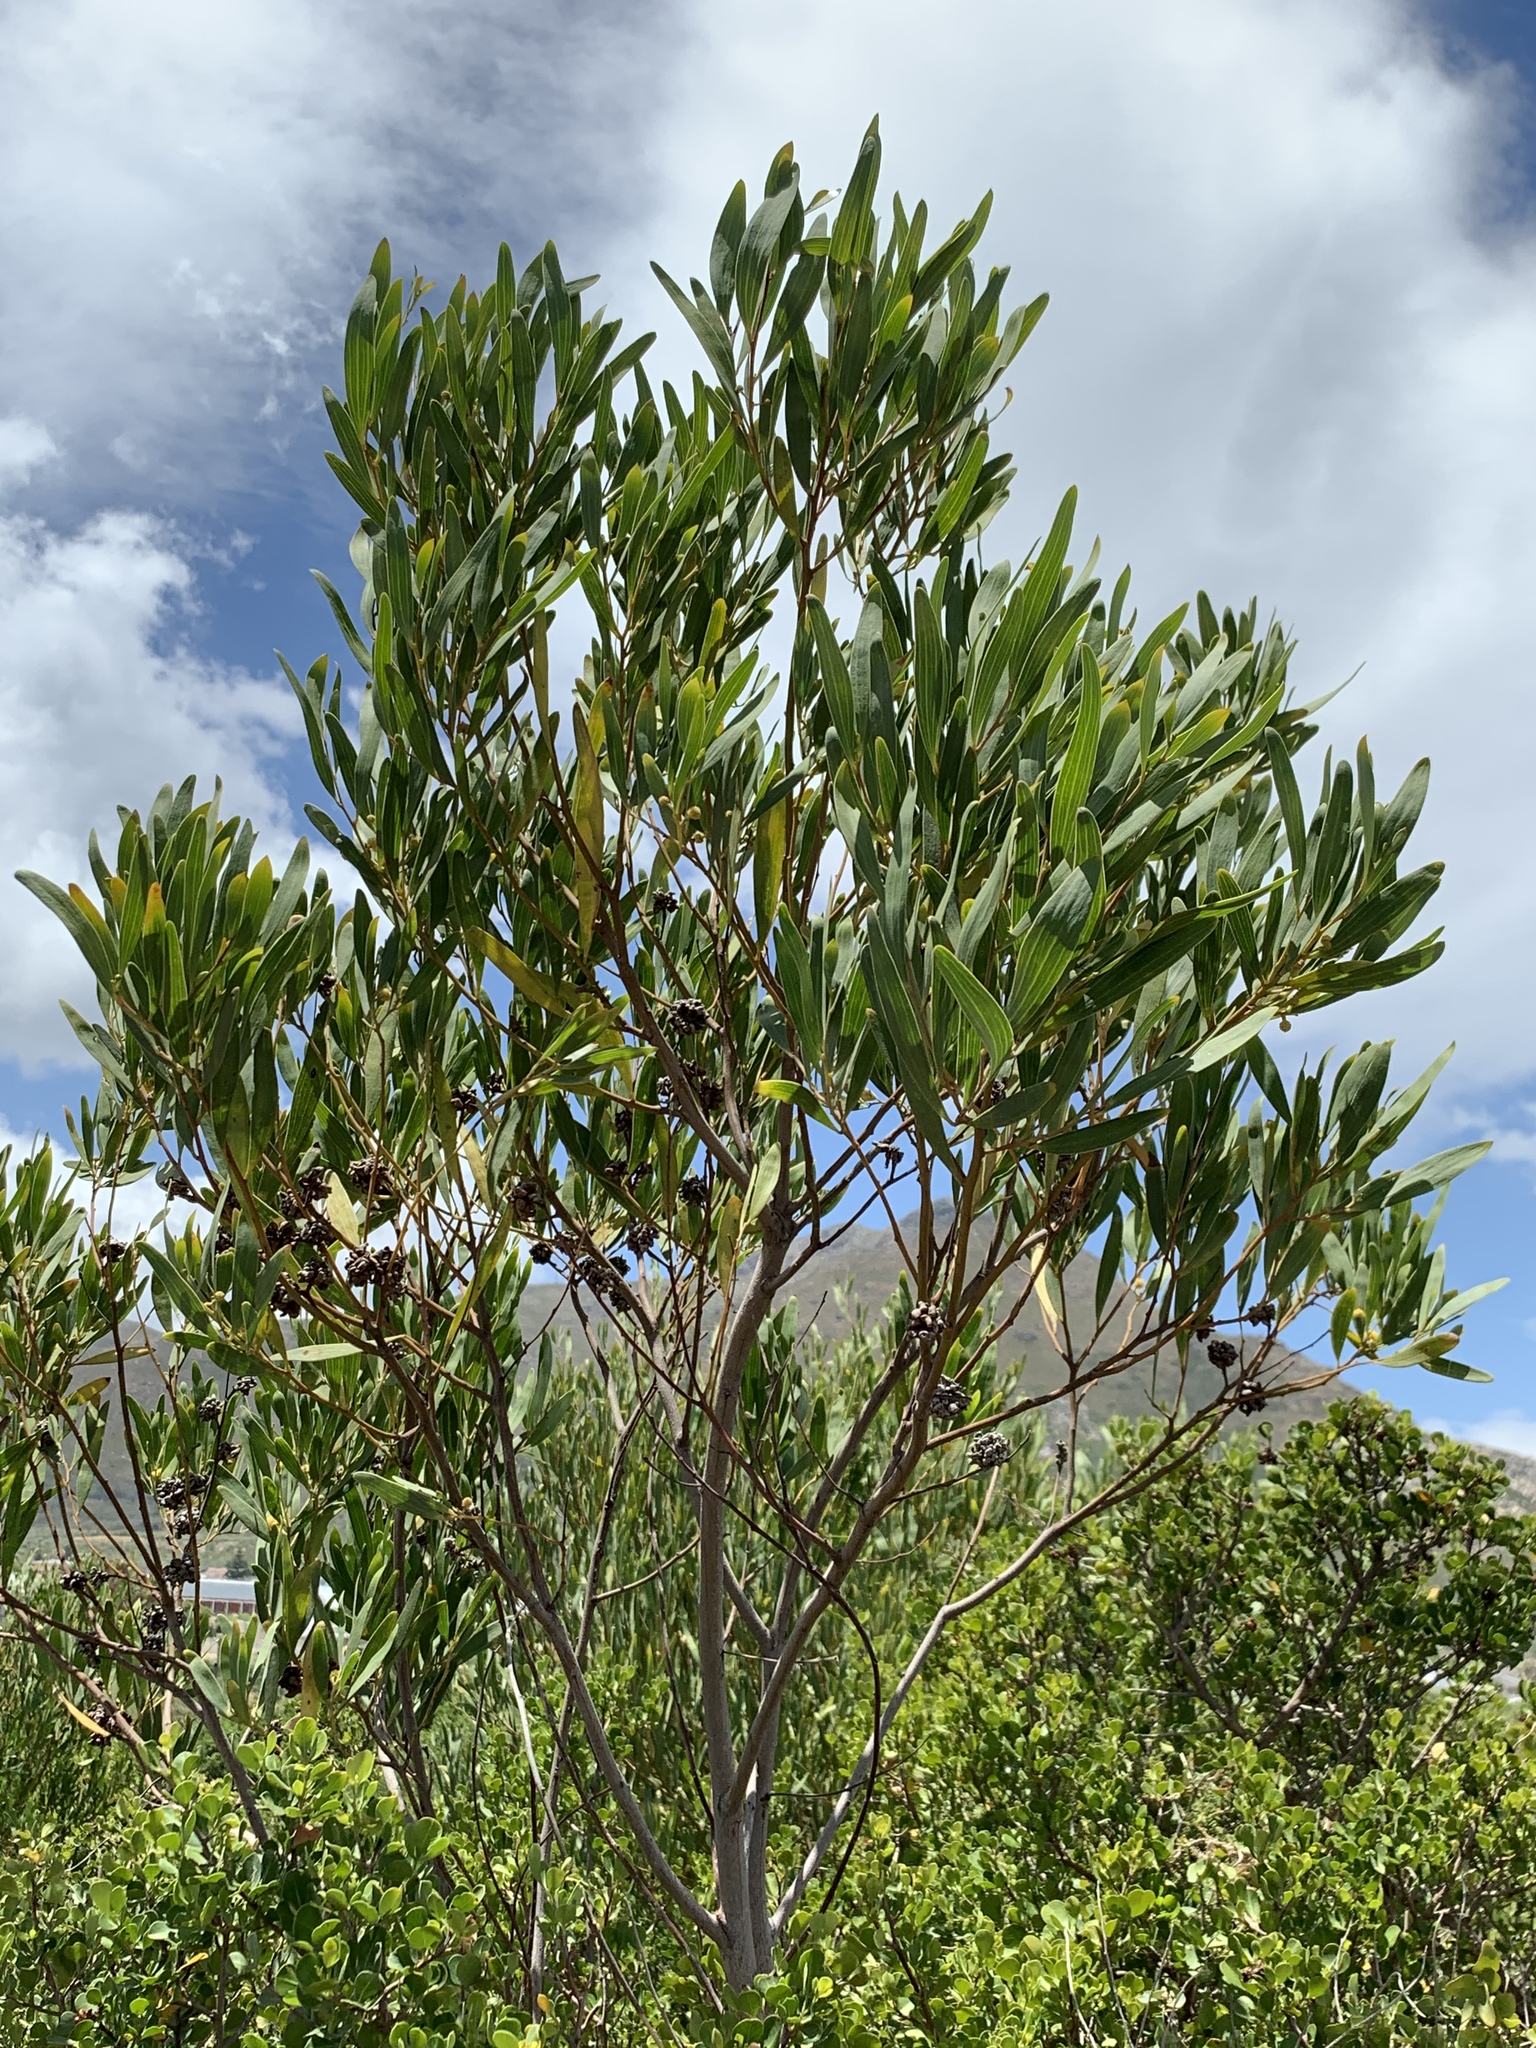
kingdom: Plantae
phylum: Tracheophyta
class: Magnoliopsida
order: Fabales
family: Fabaceae
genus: Acacia
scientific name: Acacia cyclops
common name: Coastal wattle
